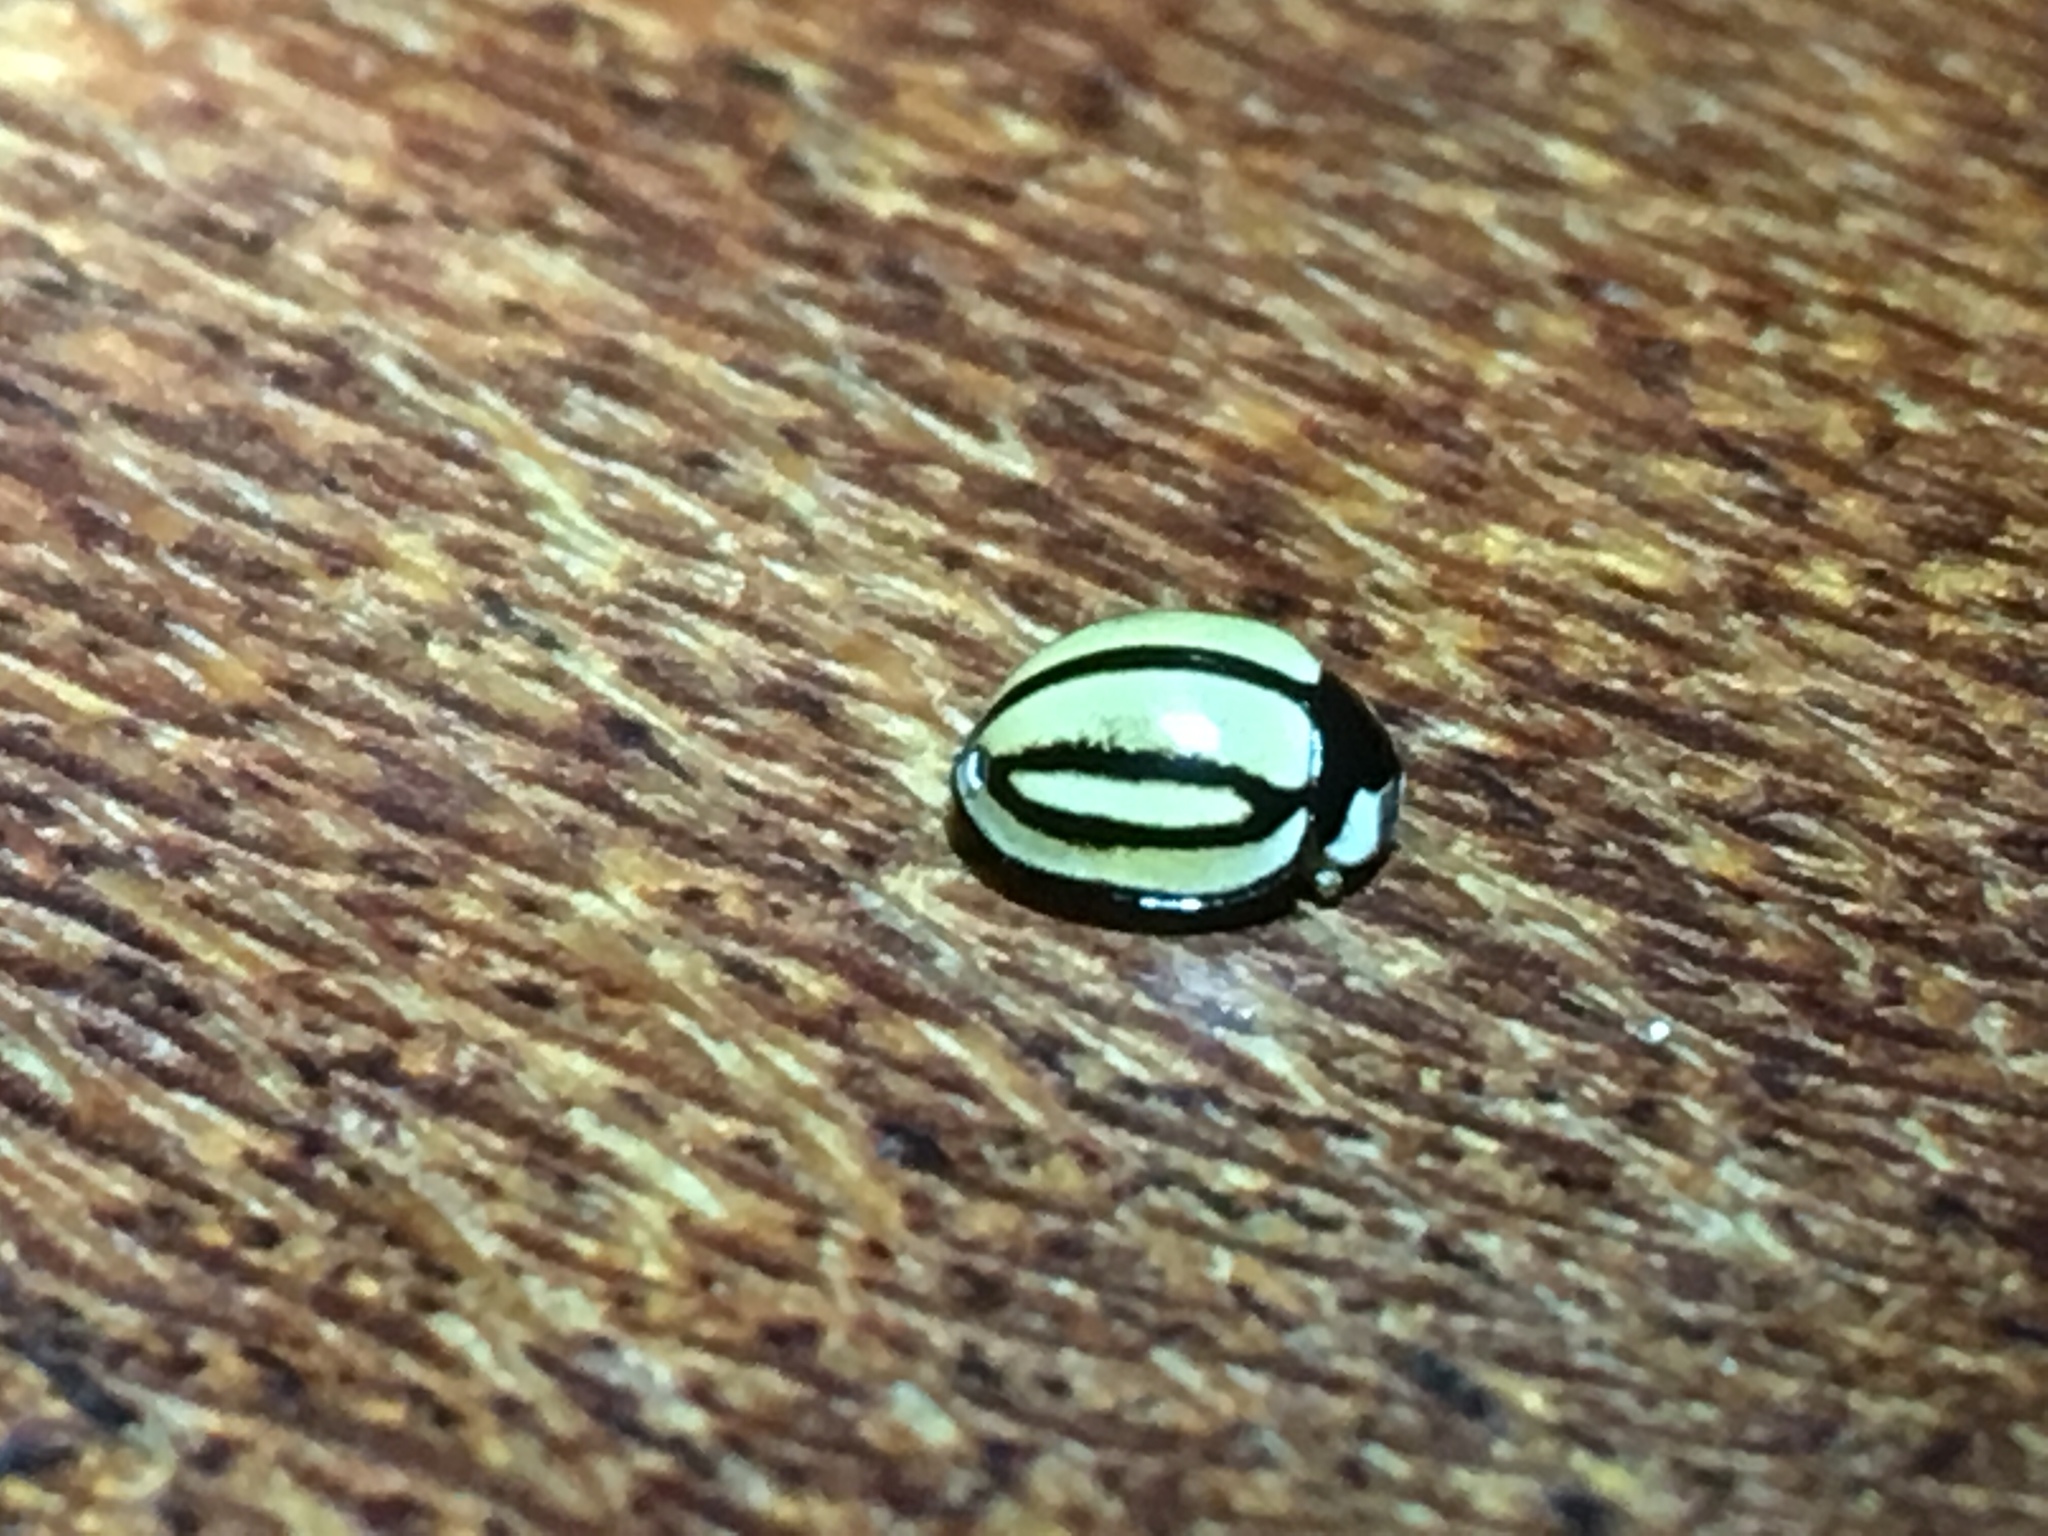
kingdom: Animalia
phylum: Arthropoda
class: Insecta
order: Coleoptera
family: Coccinellidae
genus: Cheilomenes
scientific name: Cheilomenes propinqua
